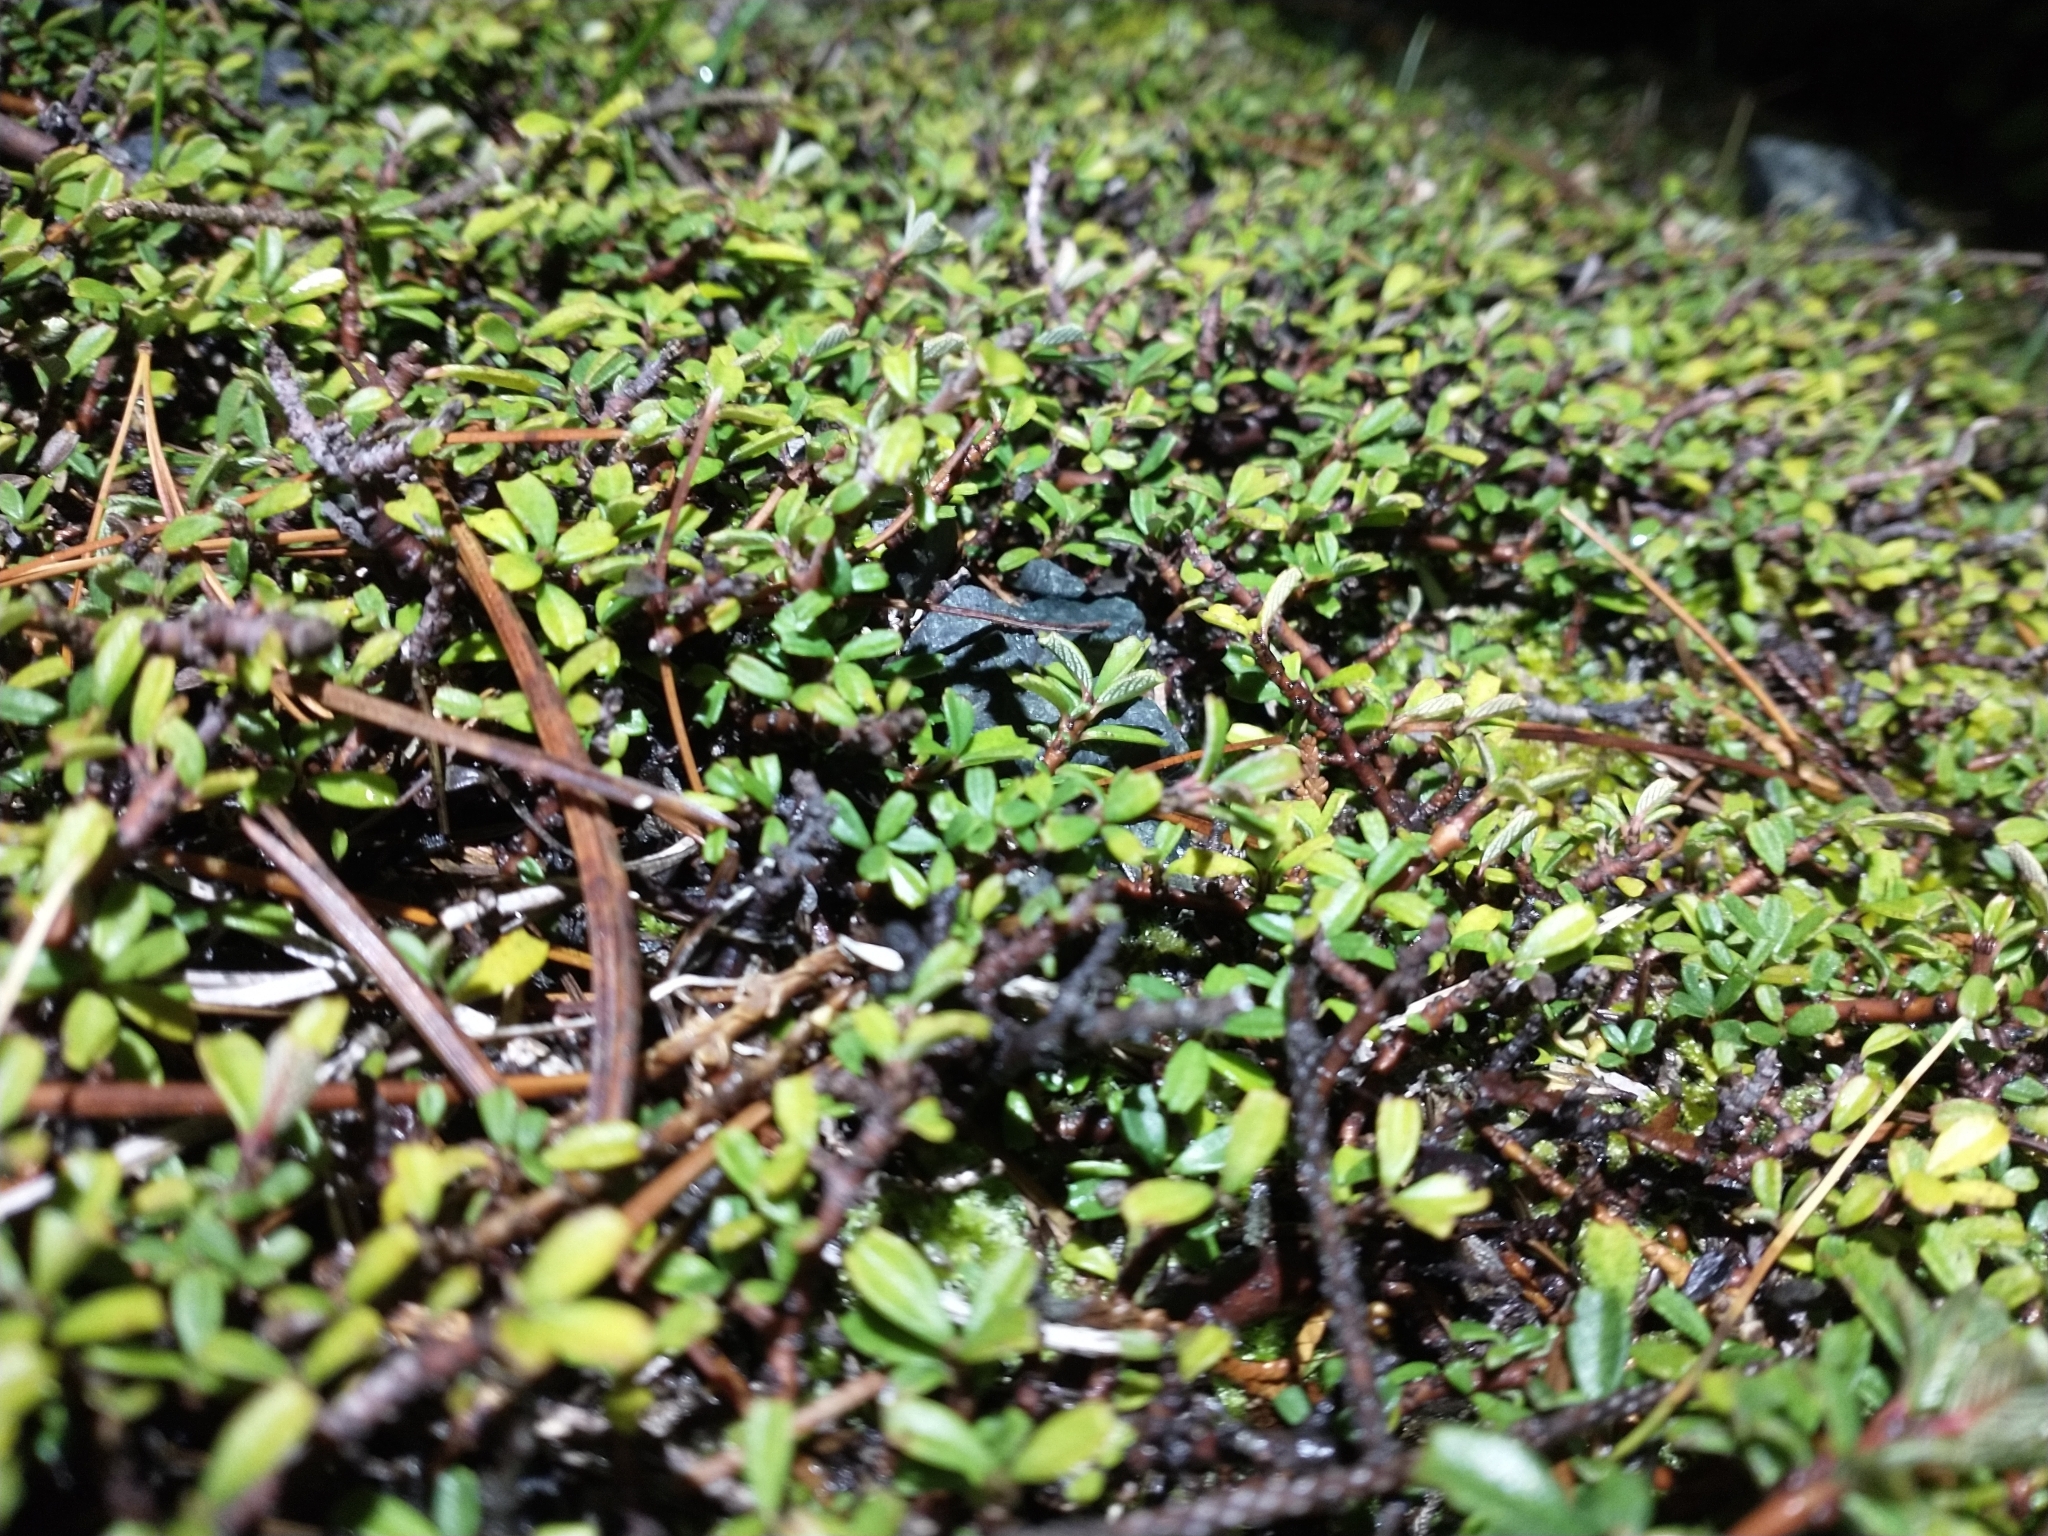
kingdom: Plantae
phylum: Tracheophyta
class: Magnoliopsida
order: Rosales
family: Rhamnaceae
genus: Ceanothus
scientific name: Ceanothus pumilus
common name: Siskiyou-mat
